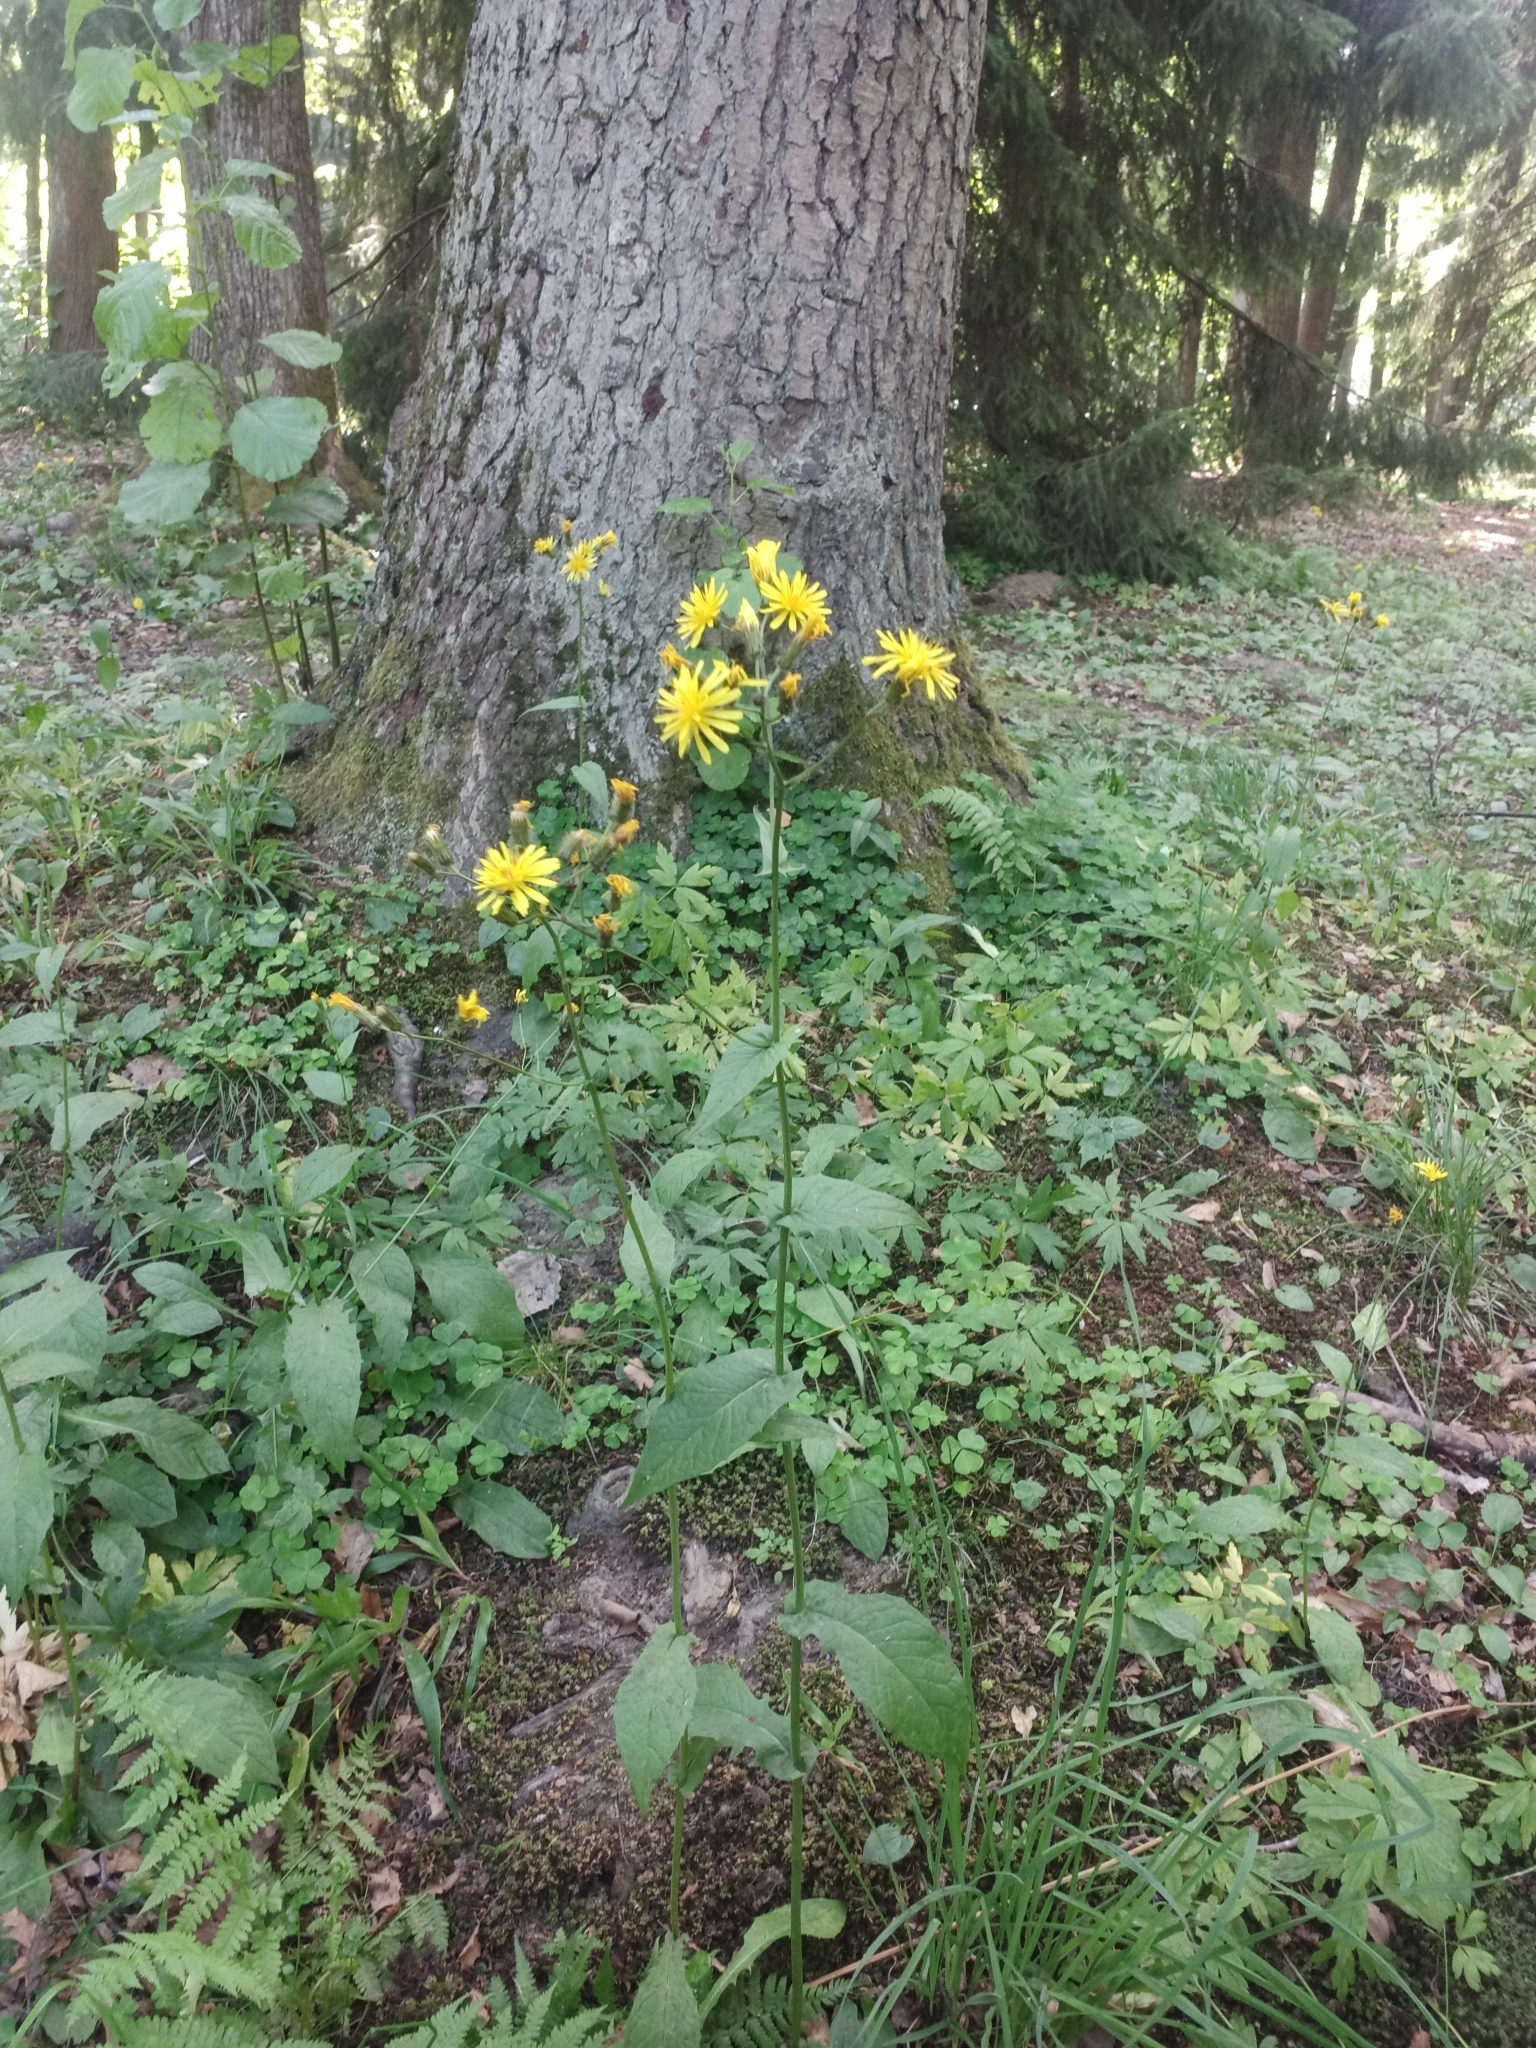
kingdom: Plantae
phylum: Tracheophyta
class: Magnoliopsida
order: Asterales
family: Asteraceae
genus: Crepis
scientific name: Crepis paludosa
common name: Marsh hawk's-beard
